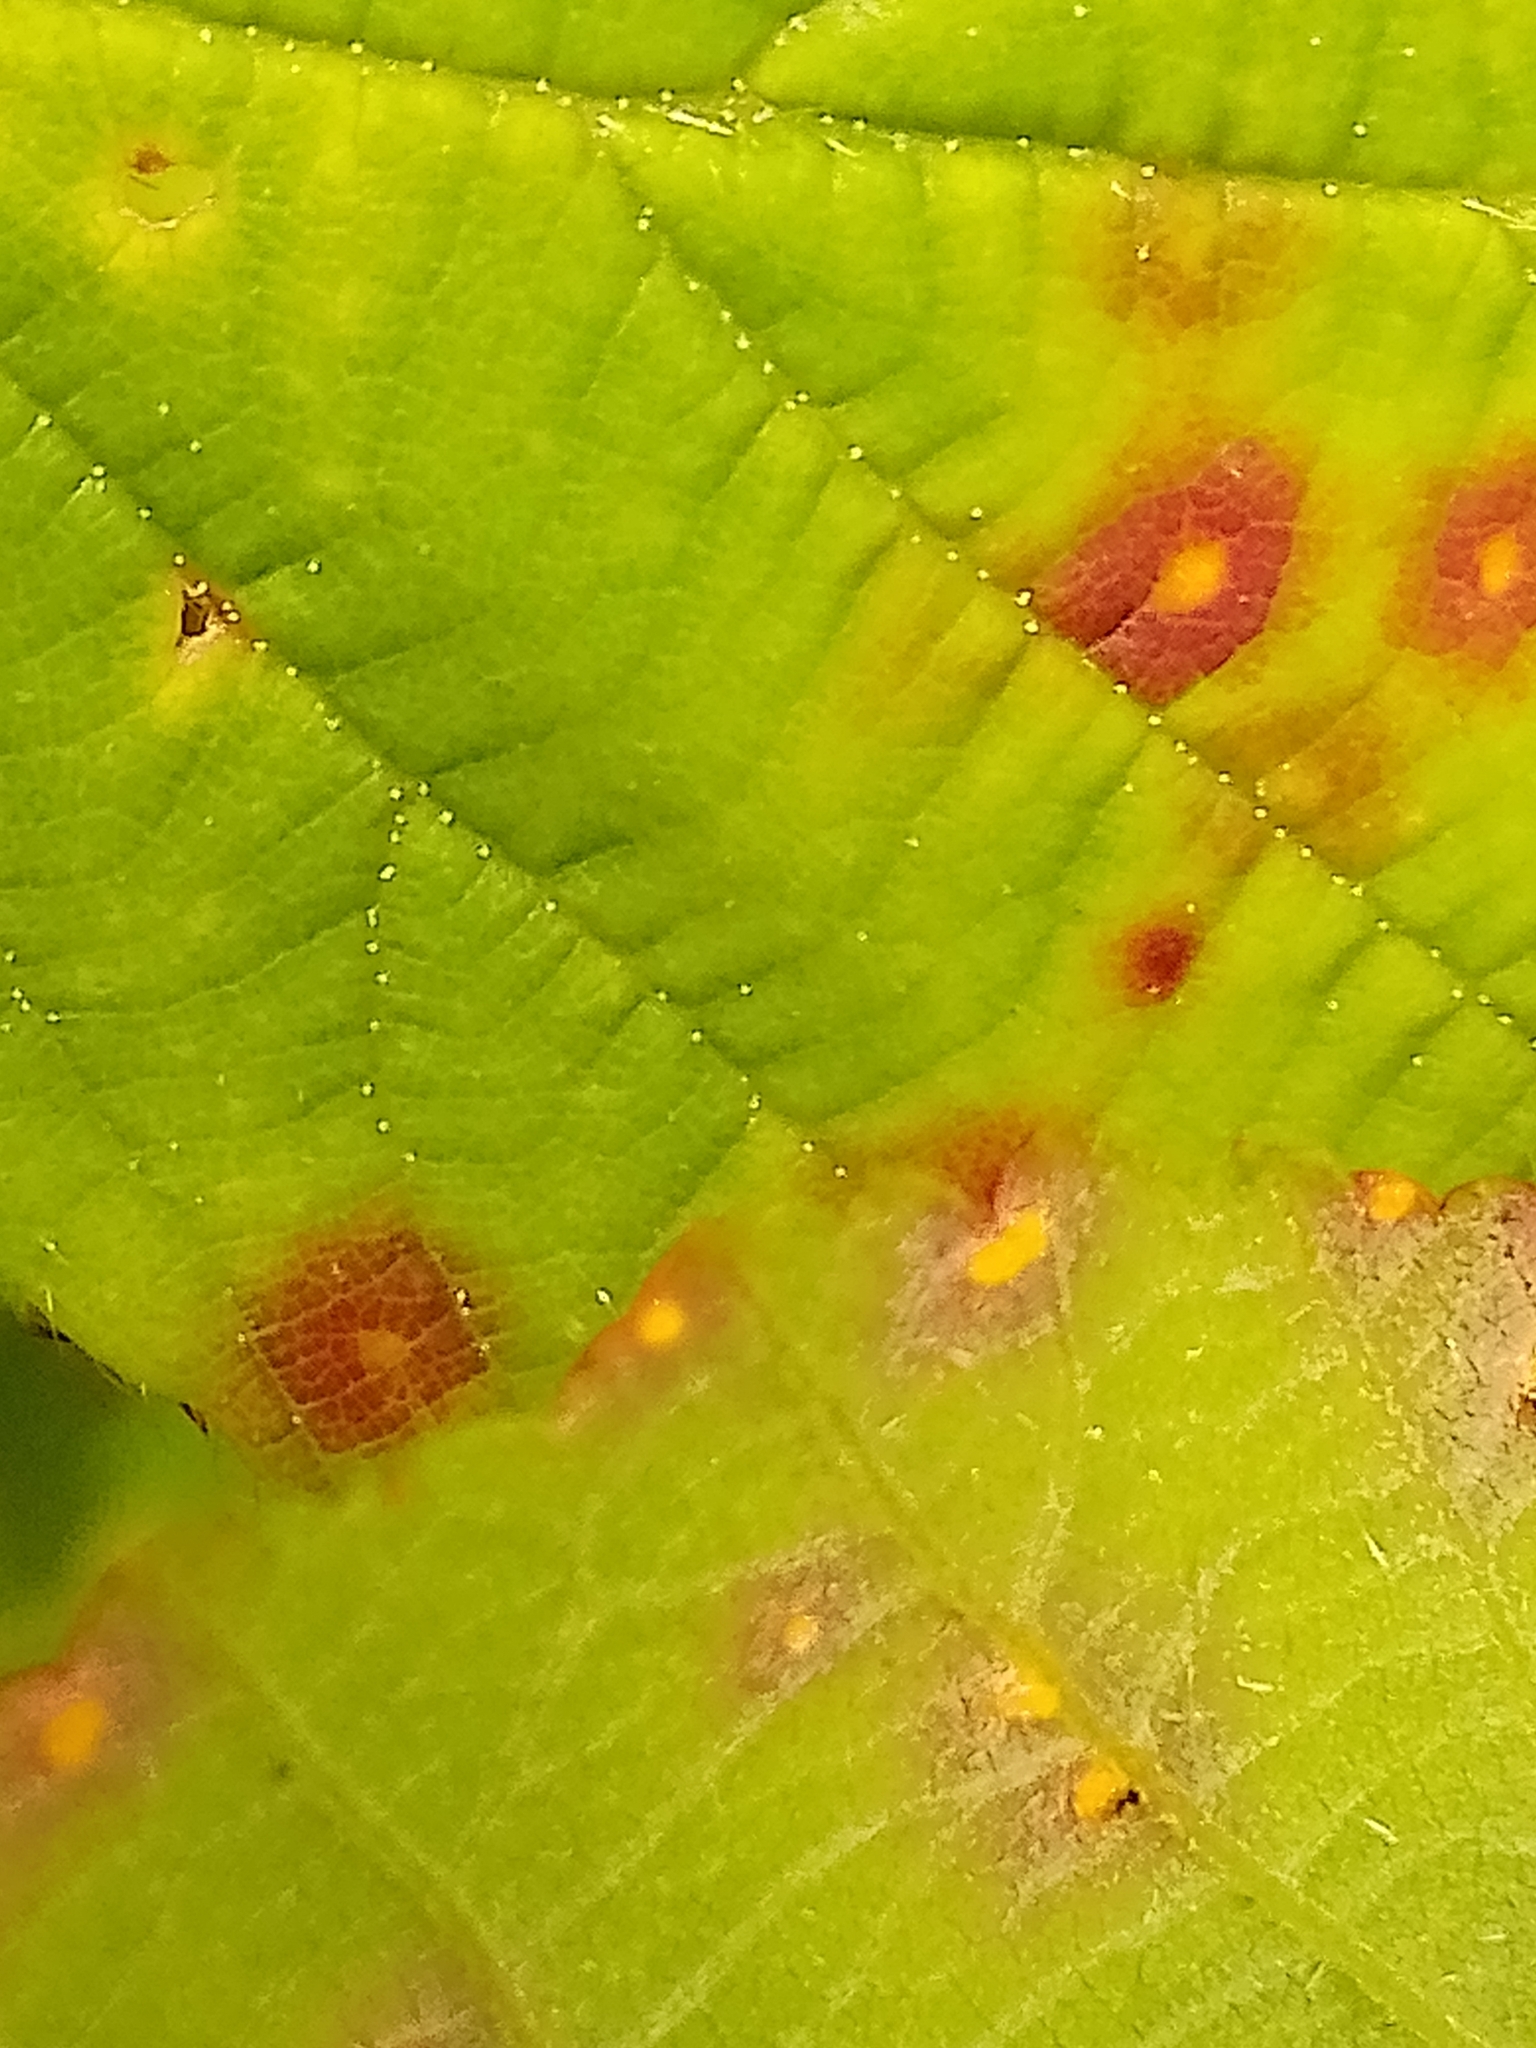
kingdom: Fungi
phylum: Basidiomycota
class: Pucciniomycetes
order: Pucciniales
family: Phragmidiaceae
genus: Phragmidium
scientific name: Phragmidium violaceum
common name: Violet bramble rust
